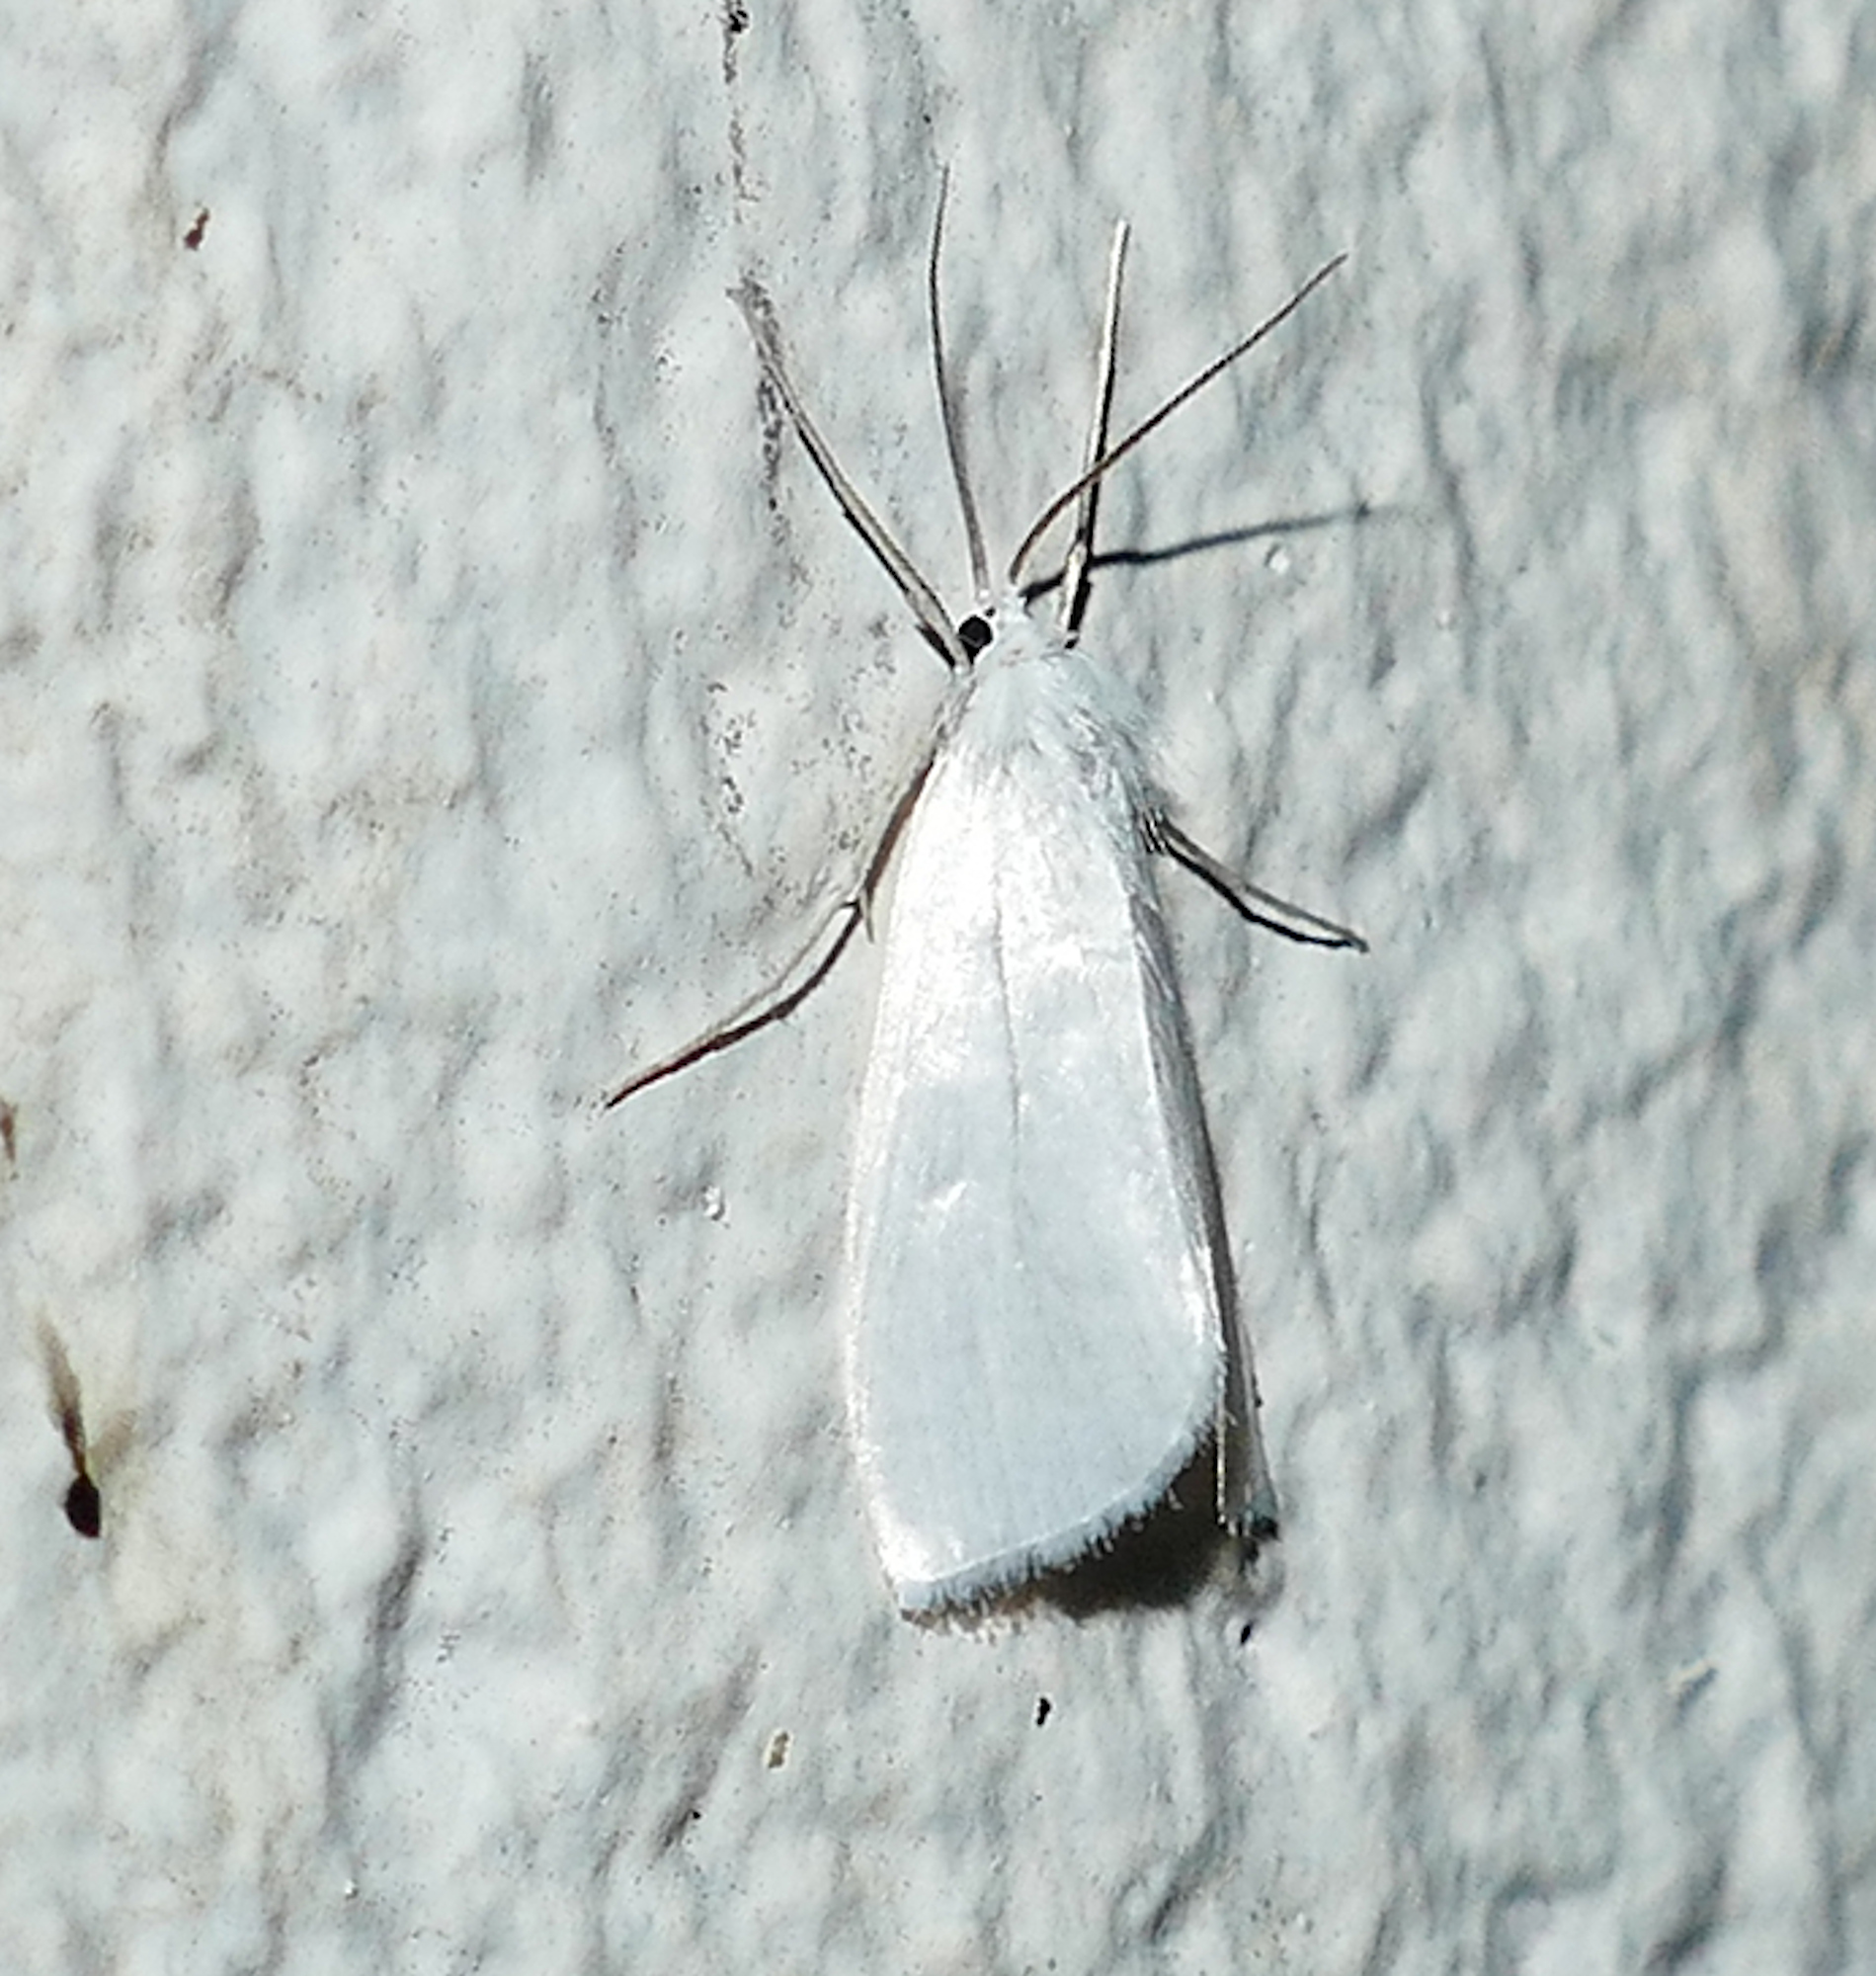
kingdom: Animalia
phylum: Arthropoda
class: Insecta
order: Lepidoptera
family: Crambidae
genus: Rupela
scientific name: Rupela tinctella
